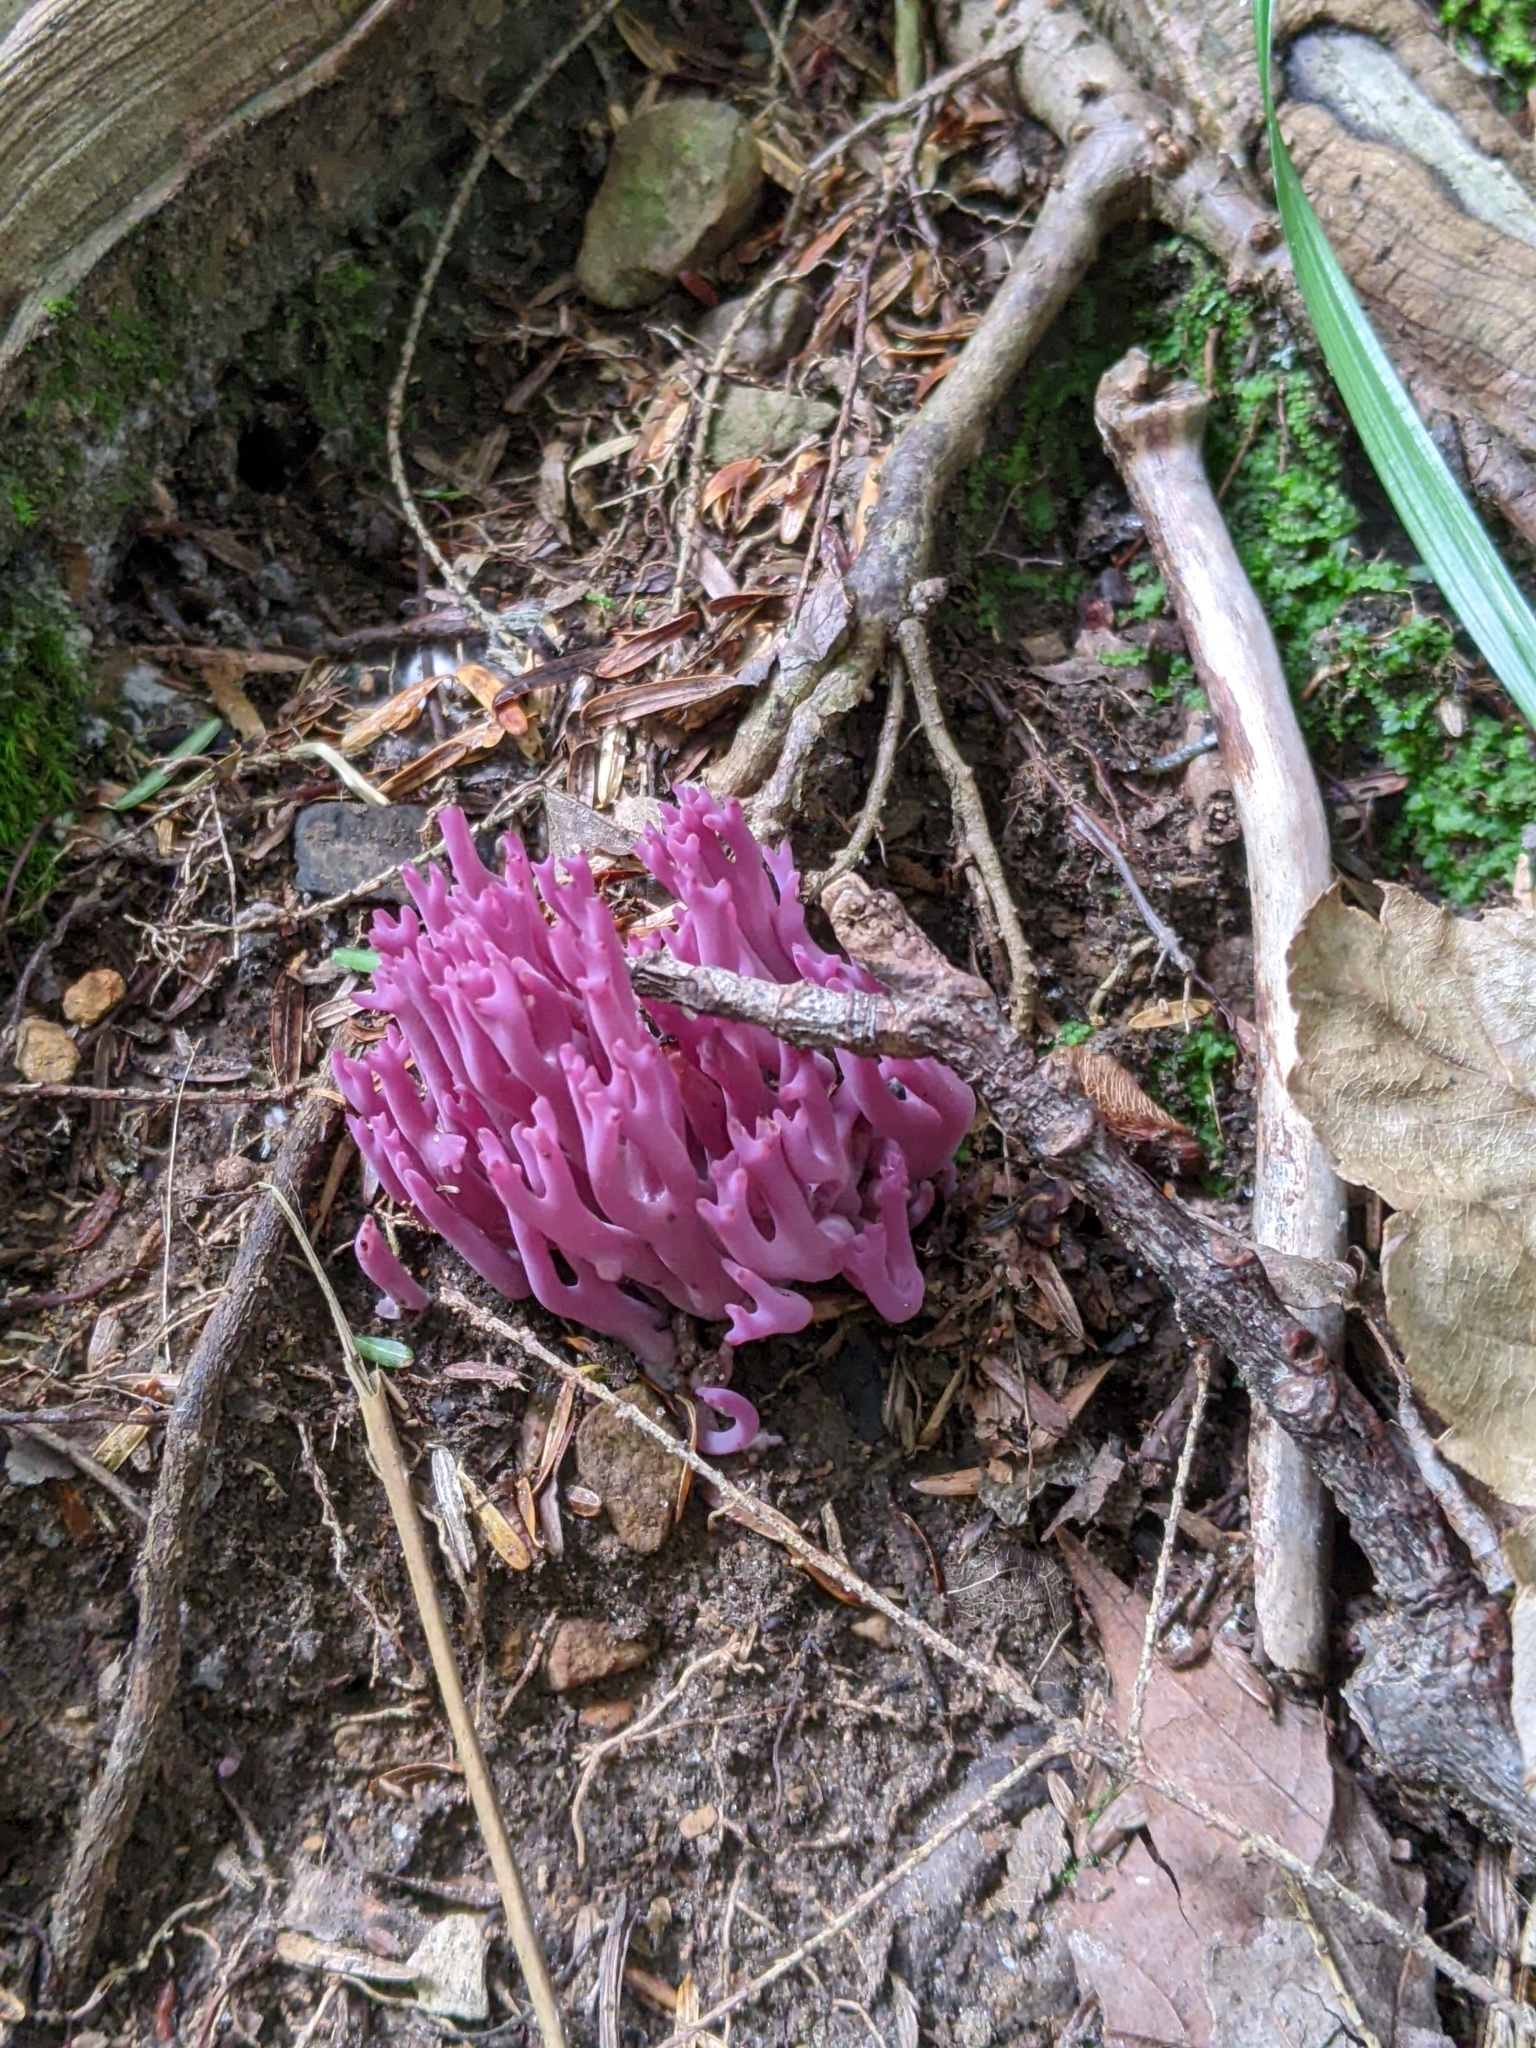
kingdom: Fungi
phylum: Basidiomycota
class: Agaricomycetes
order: Agaricales
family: Clavariaceae
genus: Clavaria
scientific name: Clavaria zollingeri
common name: Violet coral
